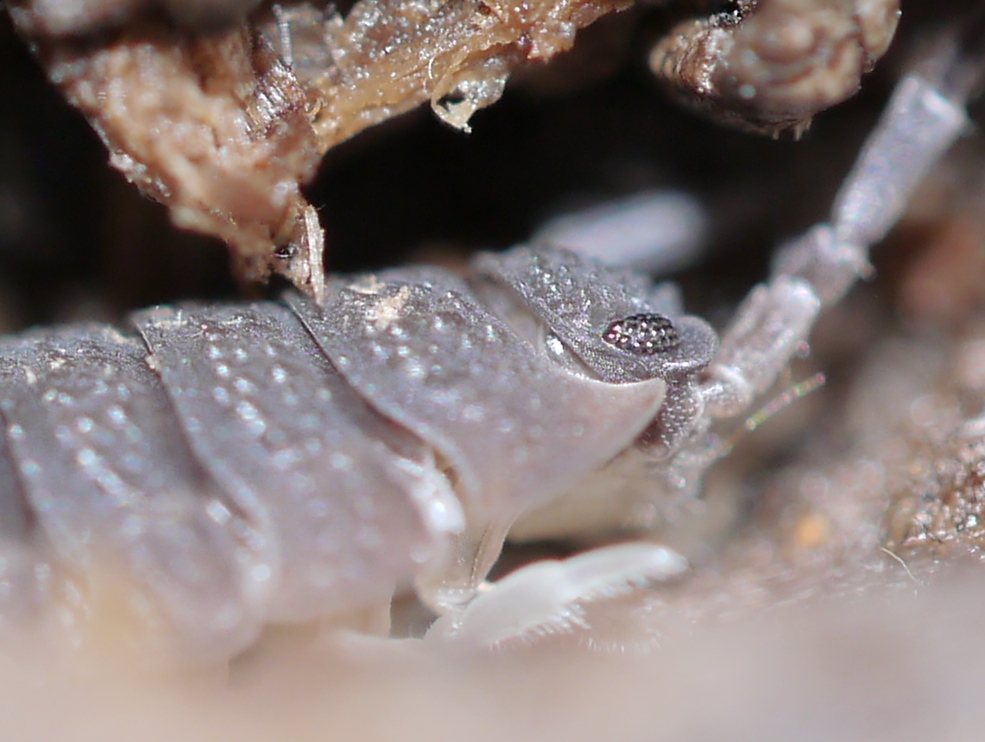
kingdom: Animalia
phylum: Arthropoda
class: Malacostraca
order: Isopoda
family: Porcellionidae
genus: Porcellio
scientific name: Porcellio scaber
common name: Common rough woodlouse
